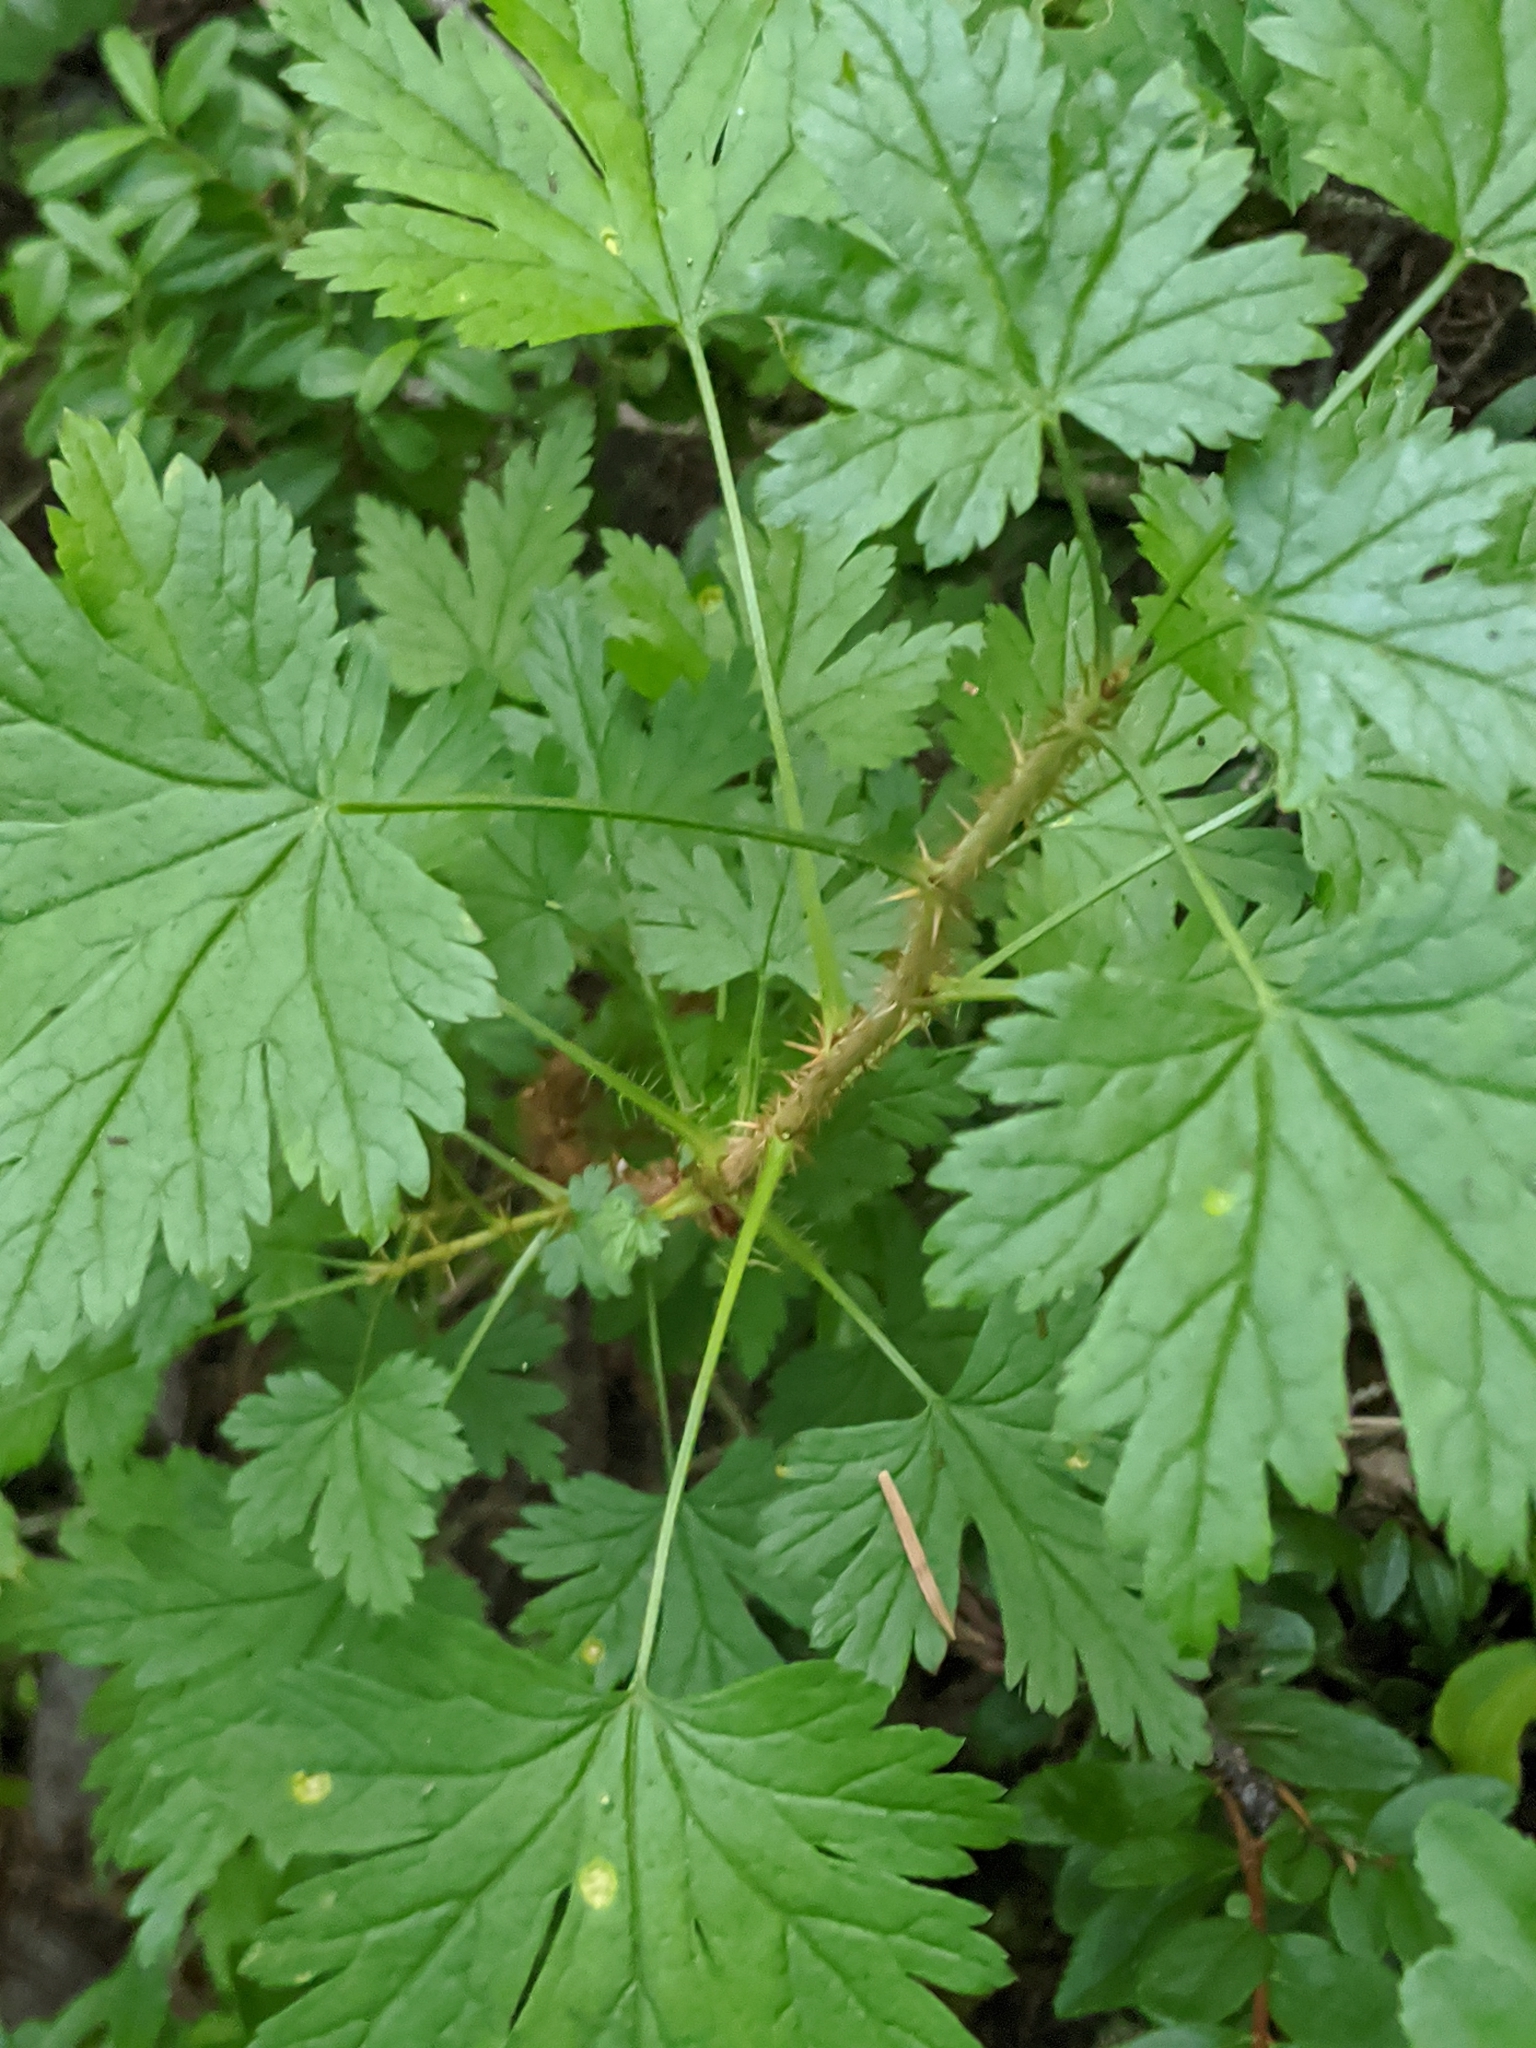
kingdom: Plantae
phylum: Tracheophyta
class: Magnoliopsida
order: Saxifragales
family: Grossulariaceae
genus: Ribes
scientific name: Ribes lacustre
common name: Black gooseberry
